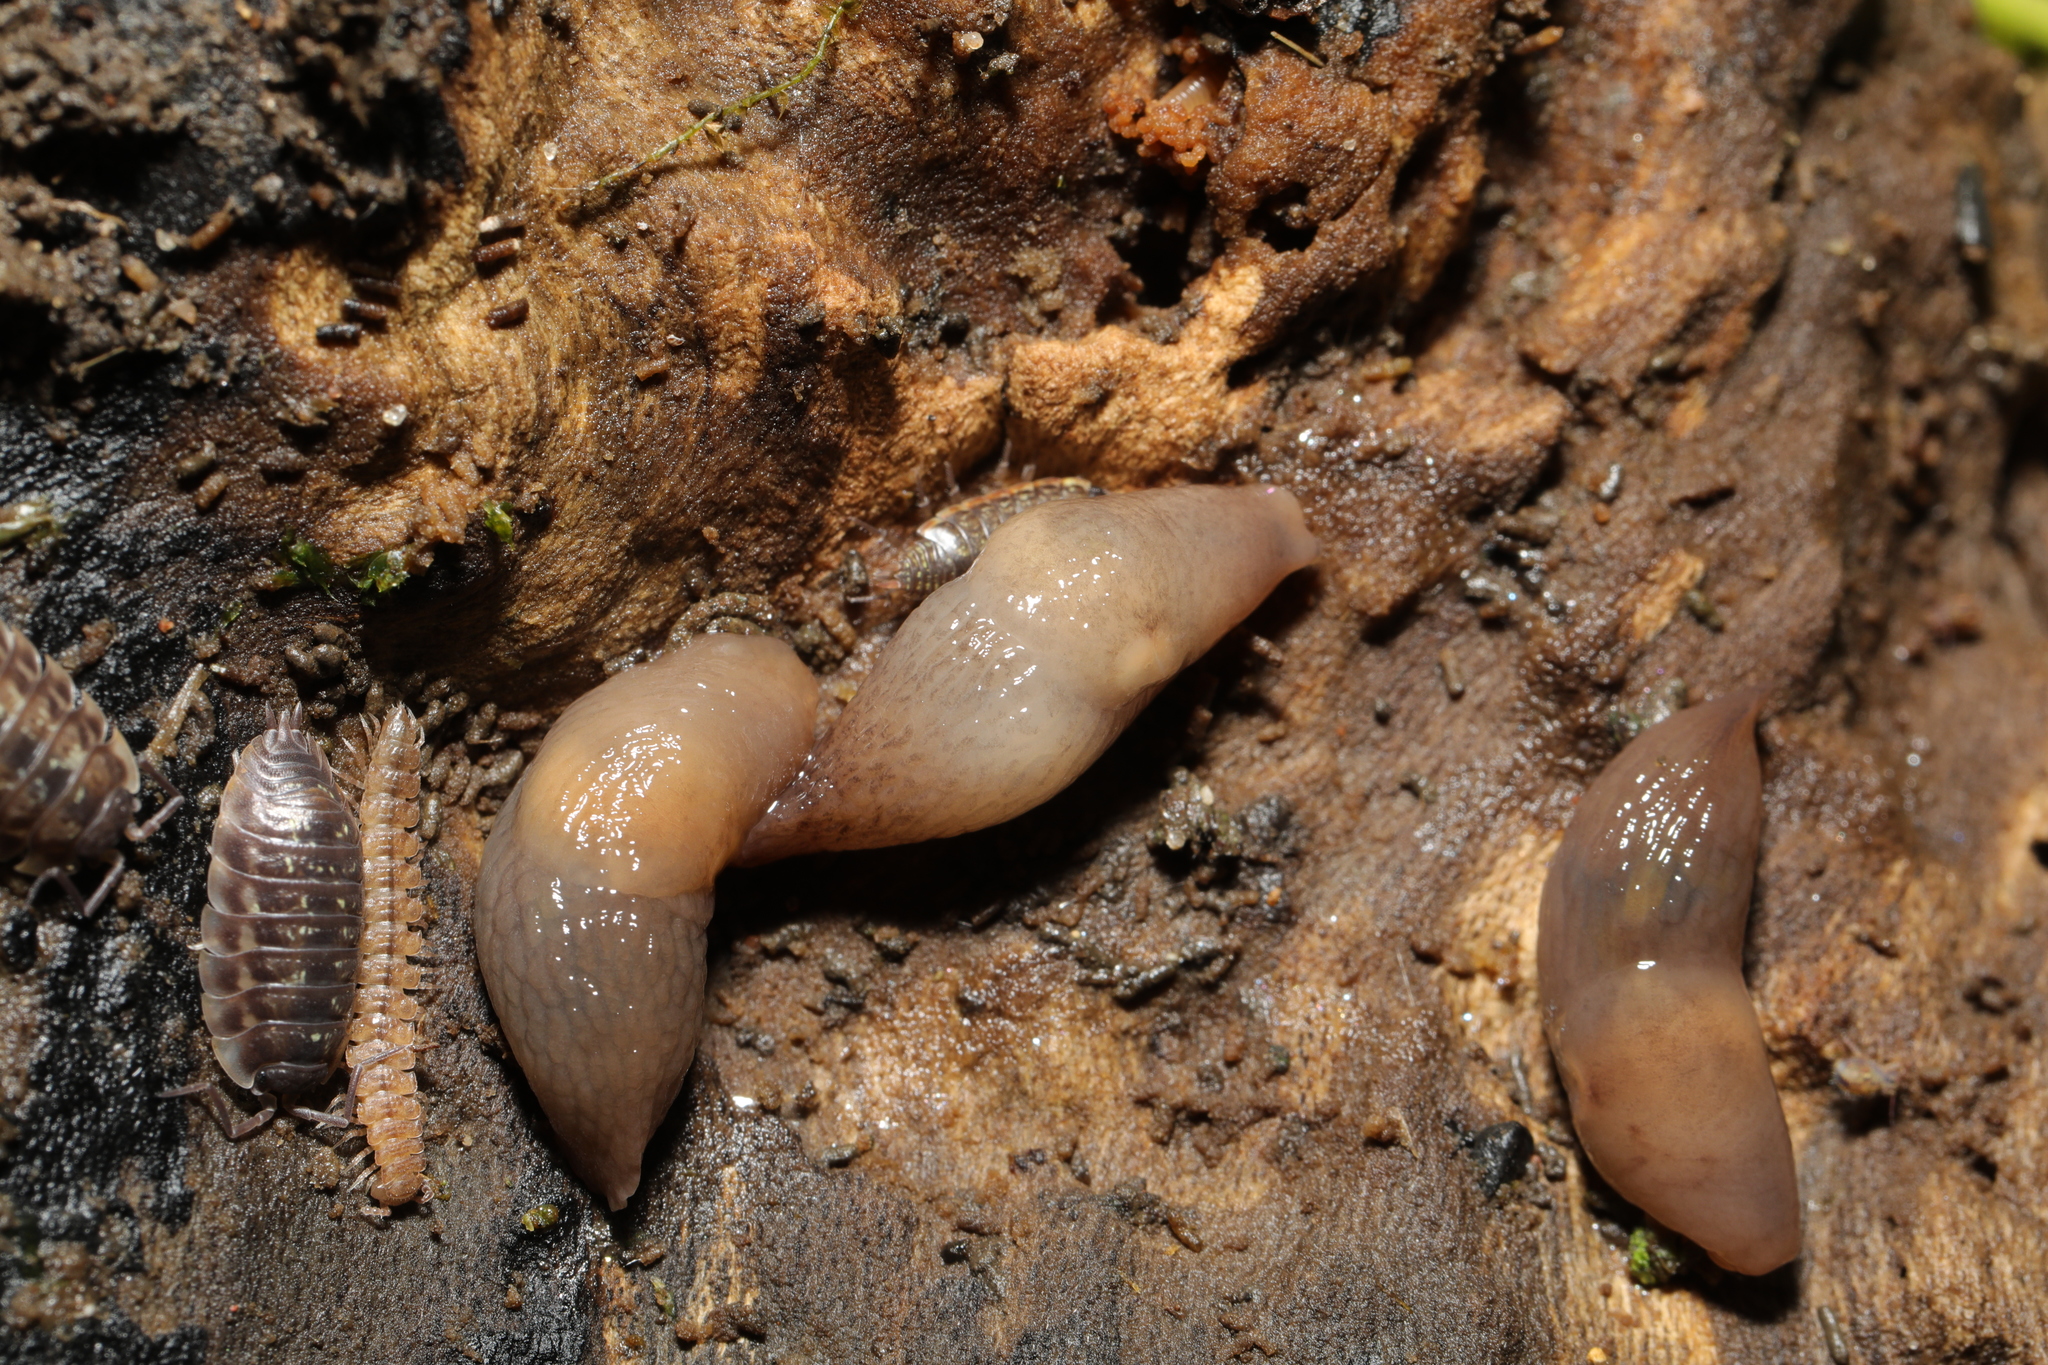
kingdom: Animalia
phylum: Mollusca
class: Gastropoda
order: Stylommatophora
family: Agriolimacidae
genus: Deroceras
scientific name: Deroceras invadens
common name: Caruana's slug
